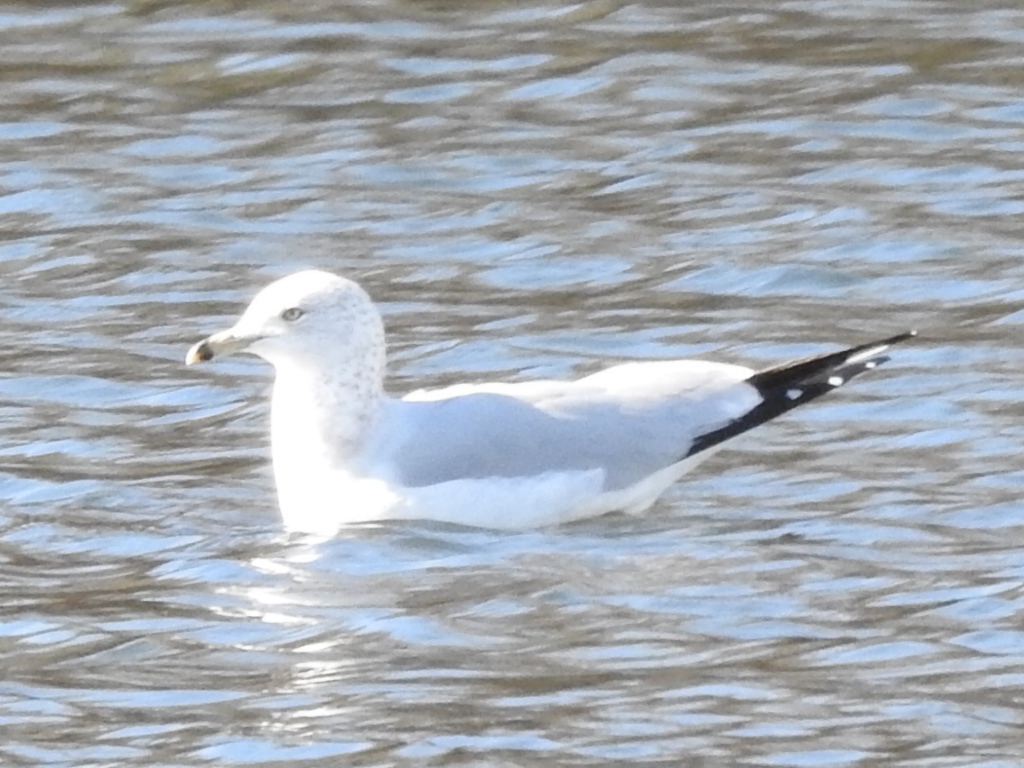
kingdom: Animalia
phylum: Chordata
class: Aves
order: Charadriiformes
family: Laridae
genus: Larus
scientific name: Larus delawarensis
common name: Ring-billed gull
